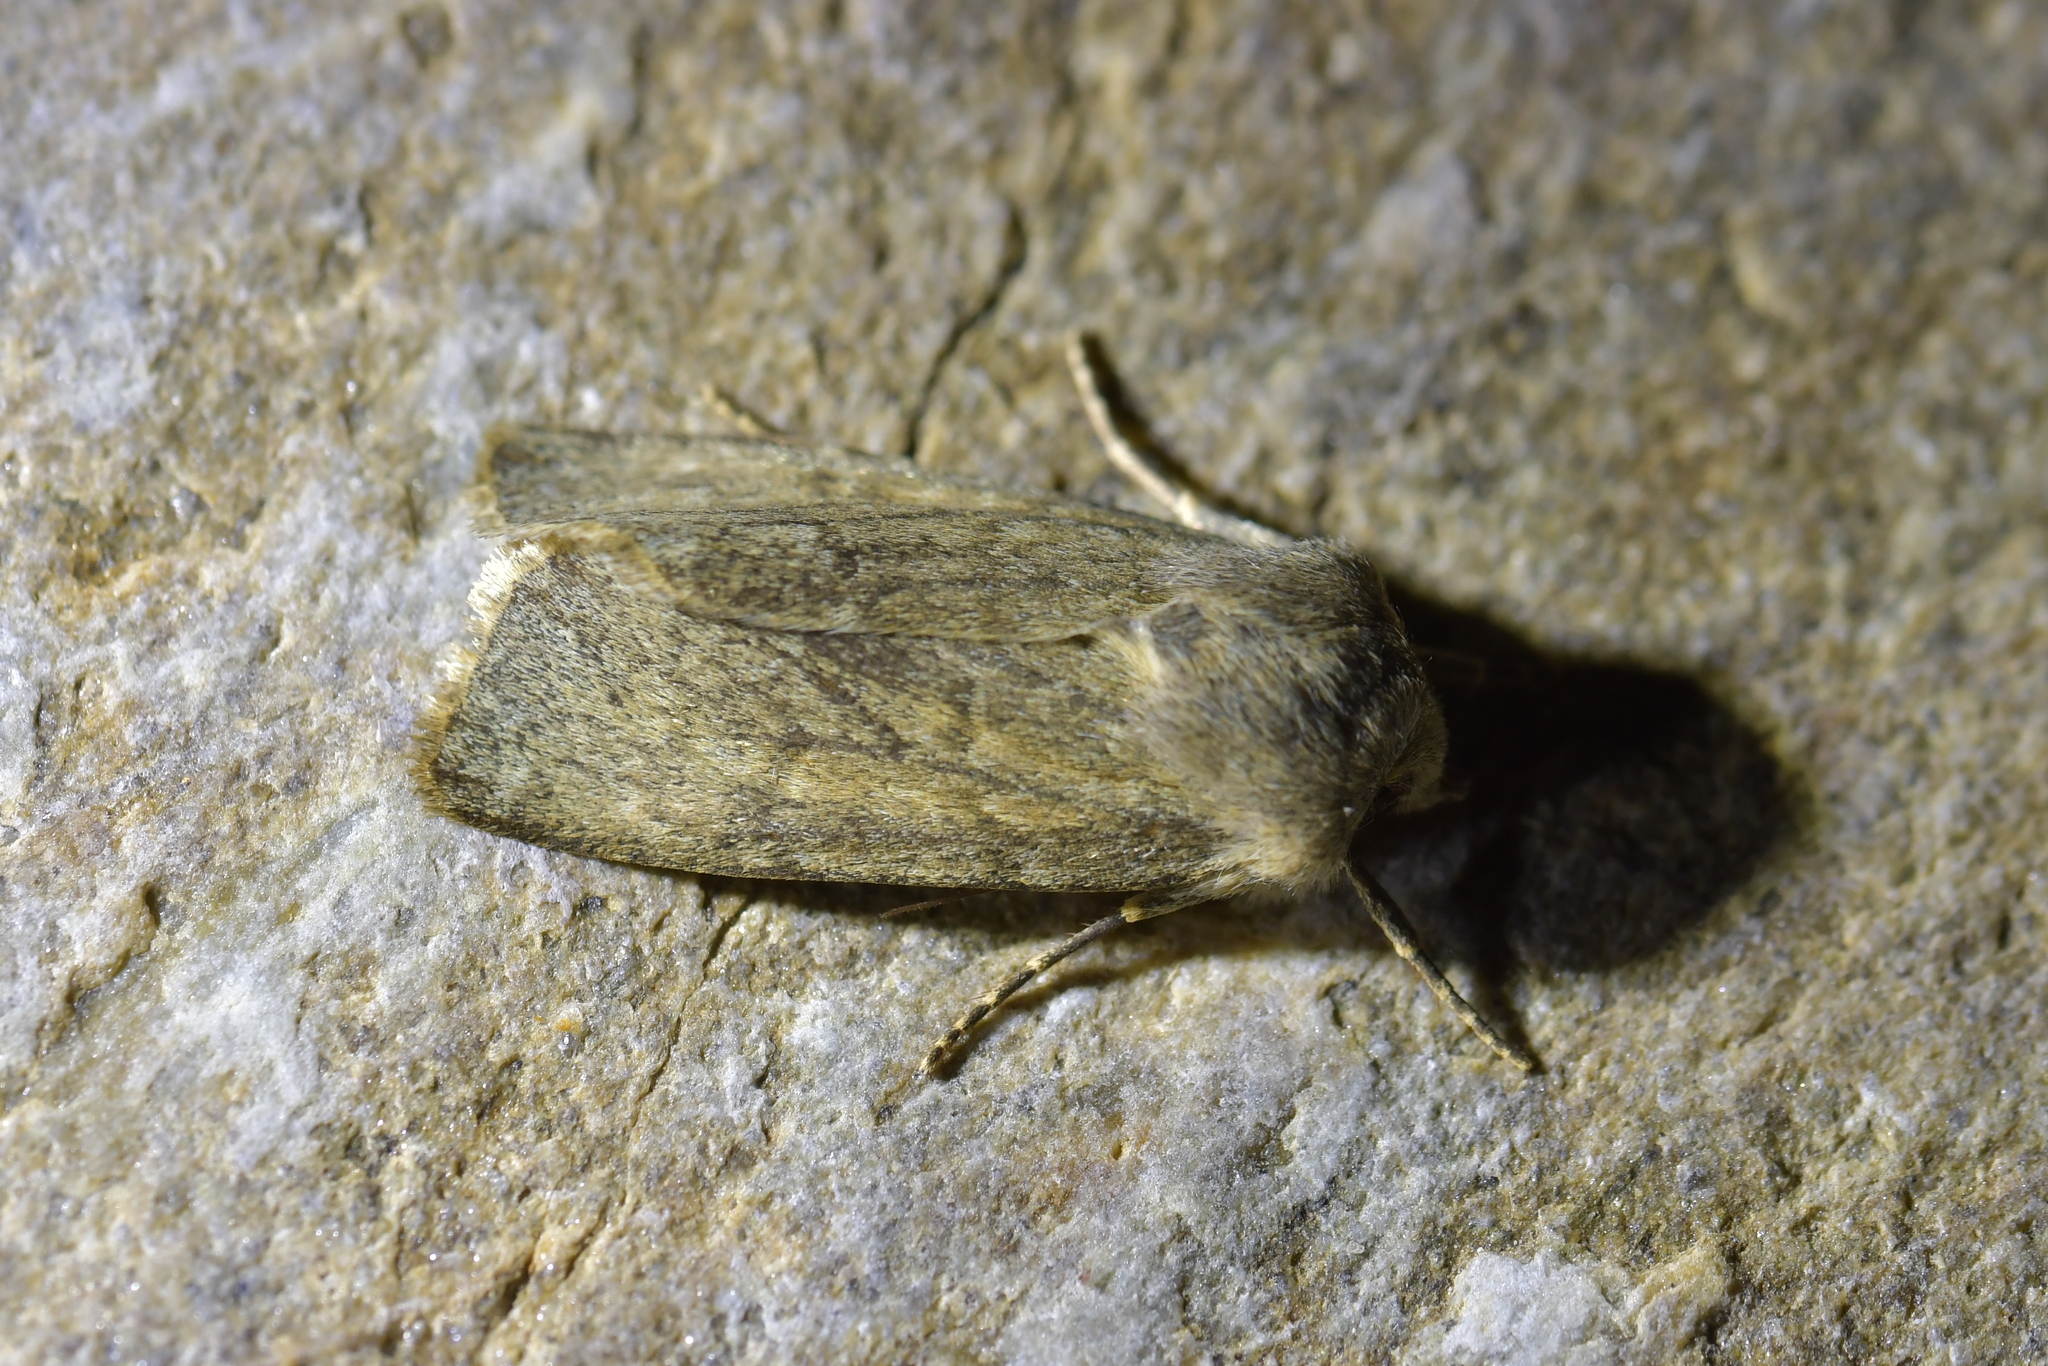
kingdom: Animalia
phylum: Arthropoda
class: Insecta
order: Lepidoptera
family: Noctuidae
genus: Physetica
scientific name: Physetica caerulea
